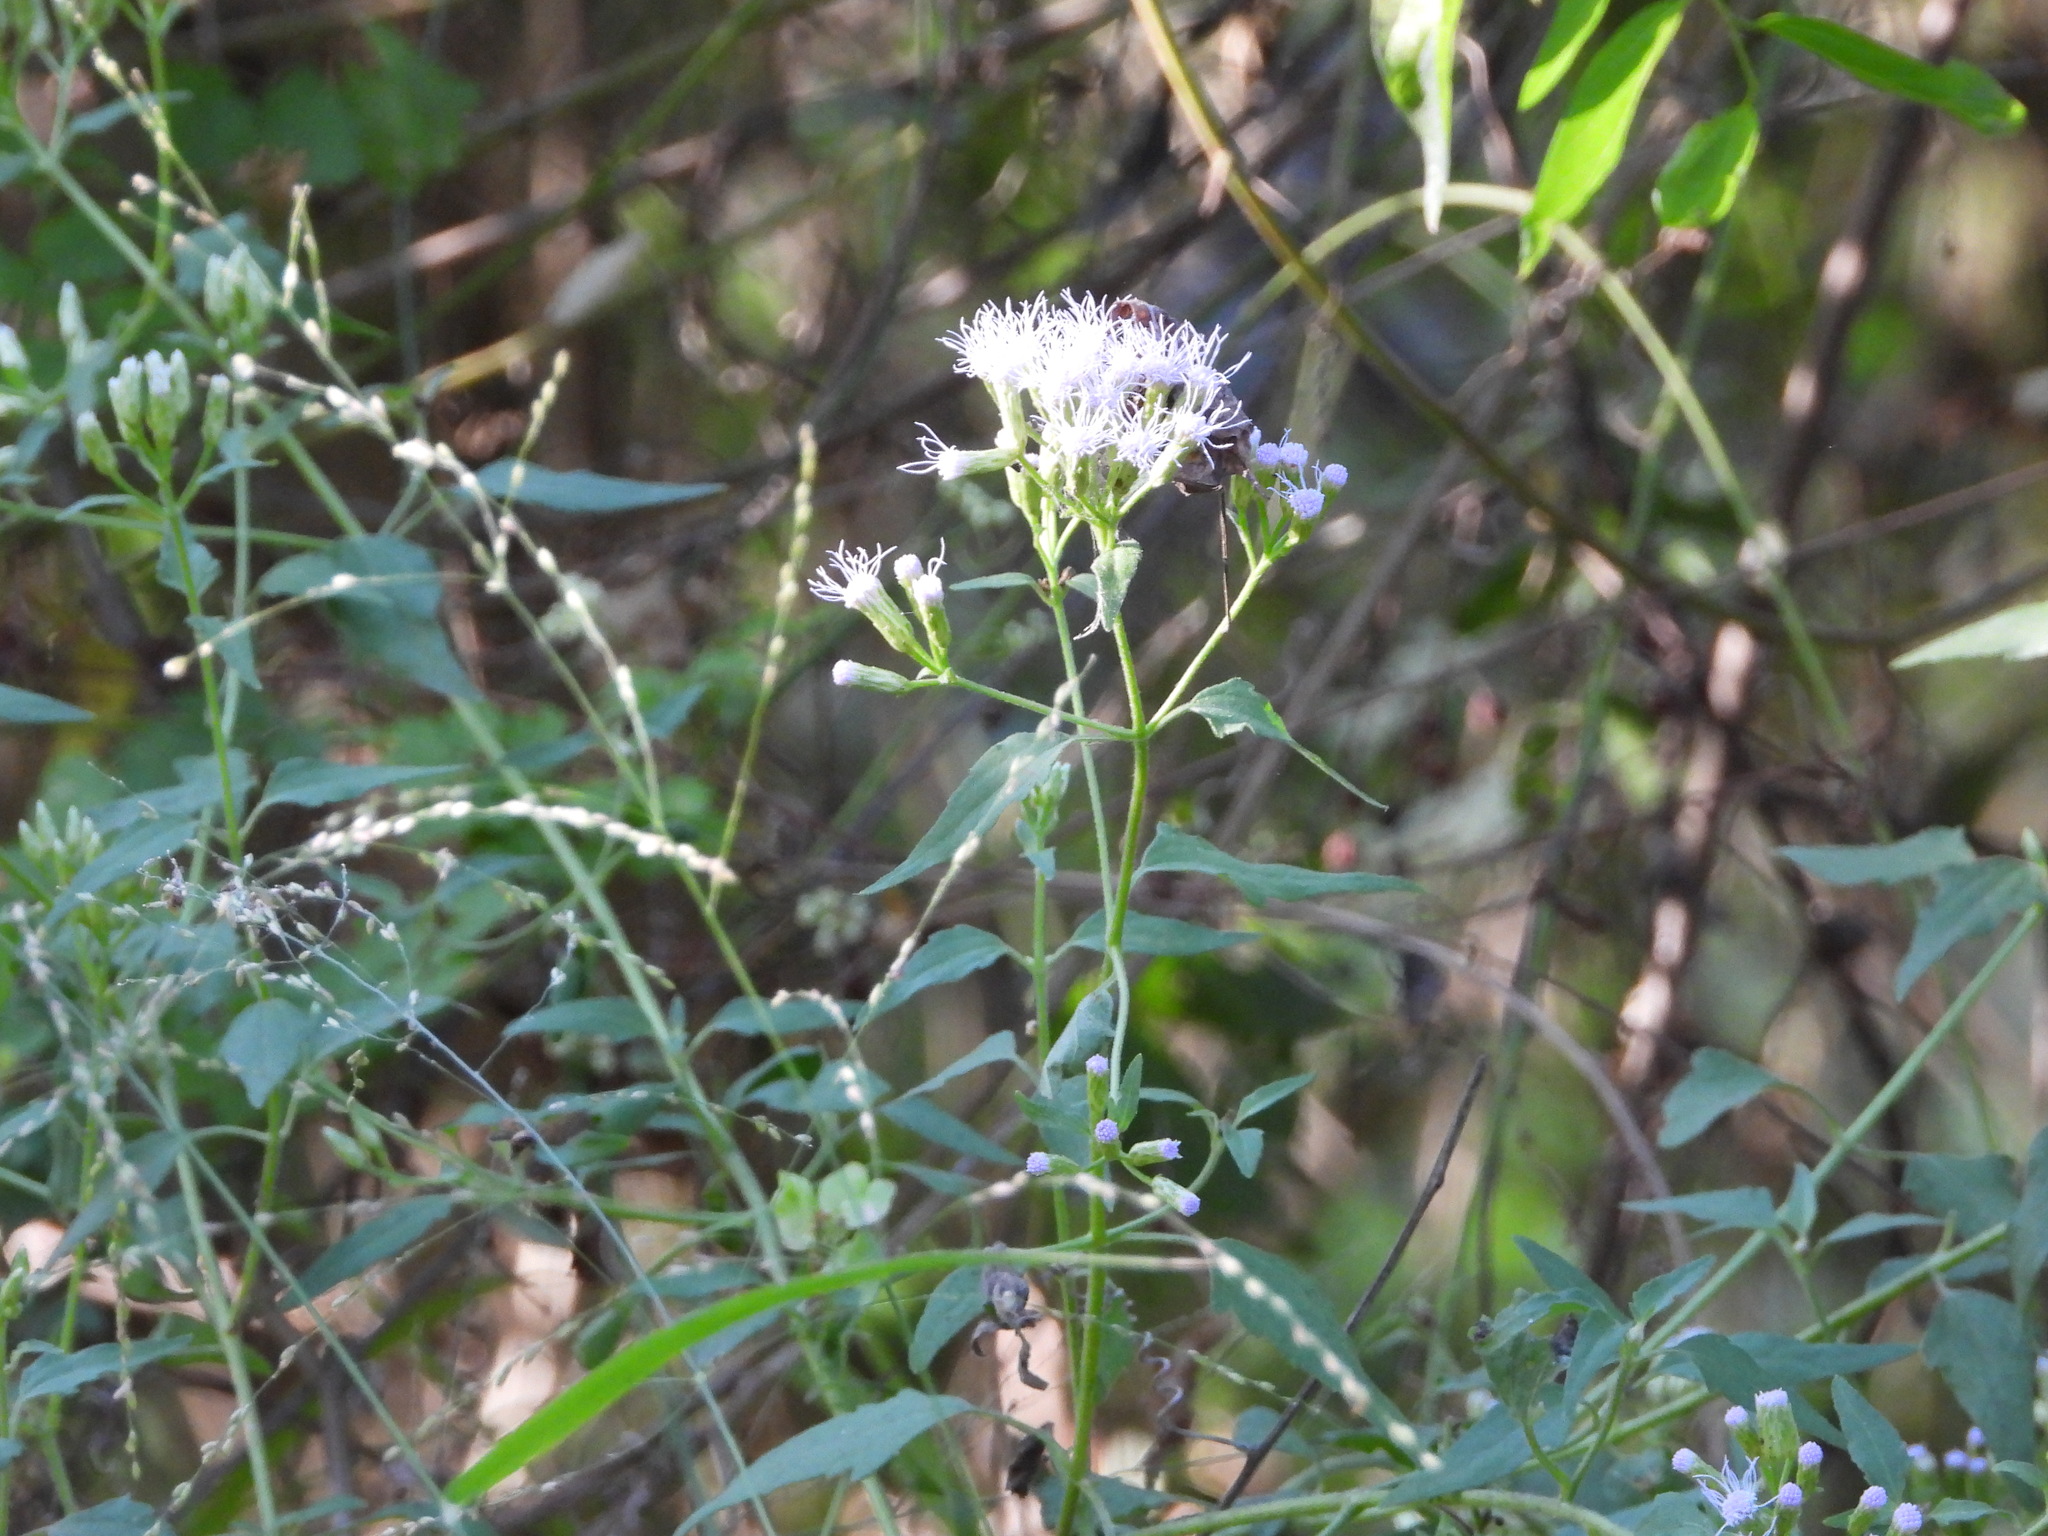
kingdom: Plantae
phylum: Tracheophyta
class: Magnoliopsida
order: Asterales
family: Asteraceae
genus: Chromolaena
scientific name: Chromolaena odorata
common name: Siamweed
